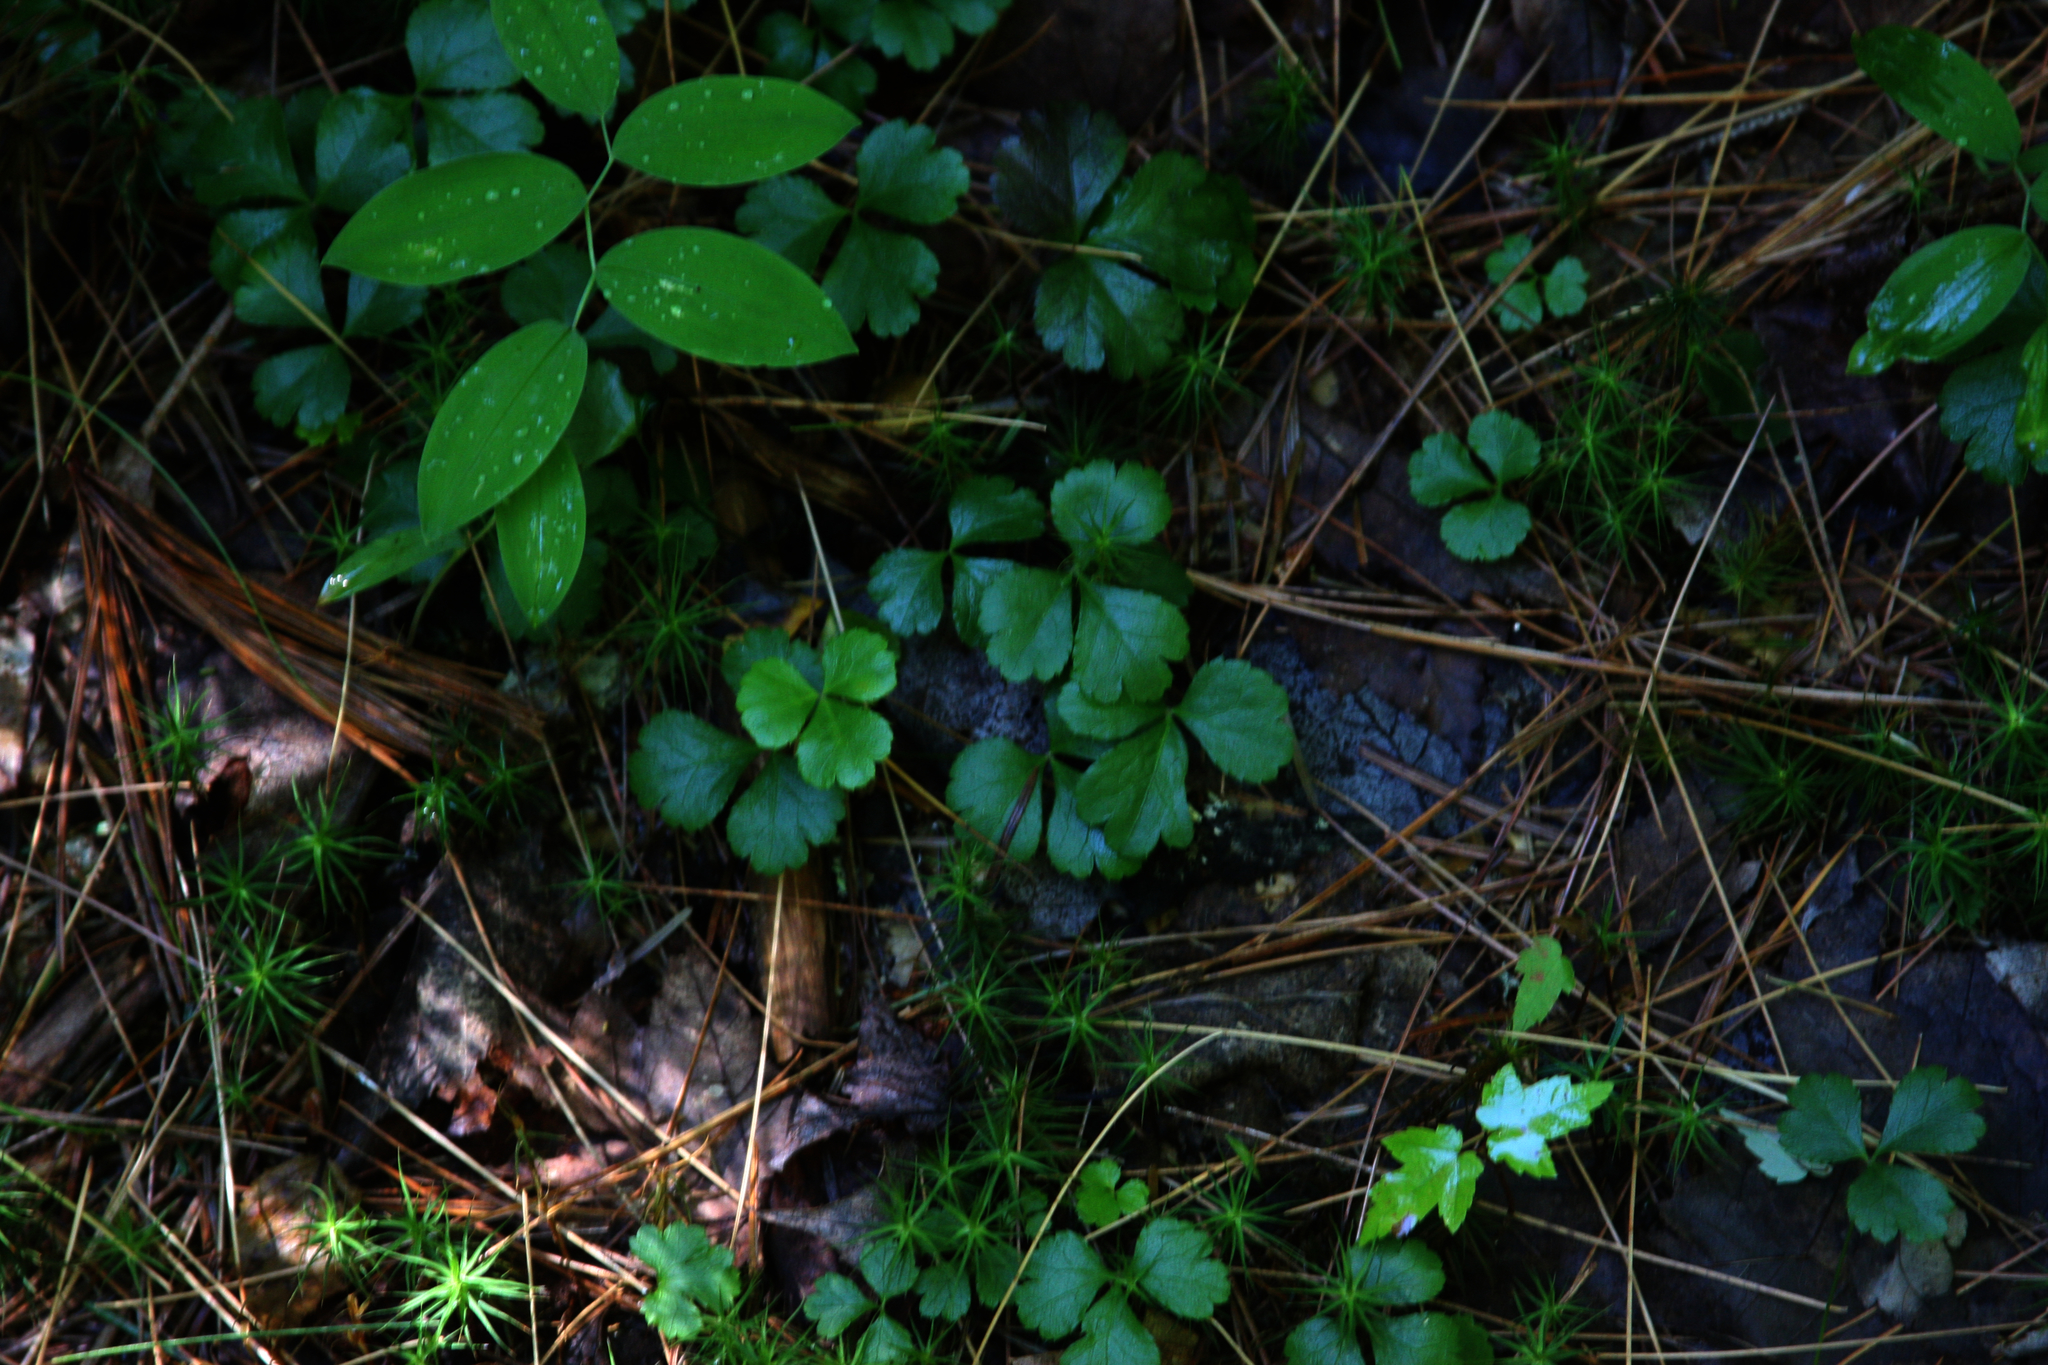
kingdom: Plantae
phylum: Tracheophyta
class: Liliopsida
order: Liliales
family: Colchicaceae
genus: Uvularia
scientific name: Uvularia sessilifolia
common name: Straw-lily
